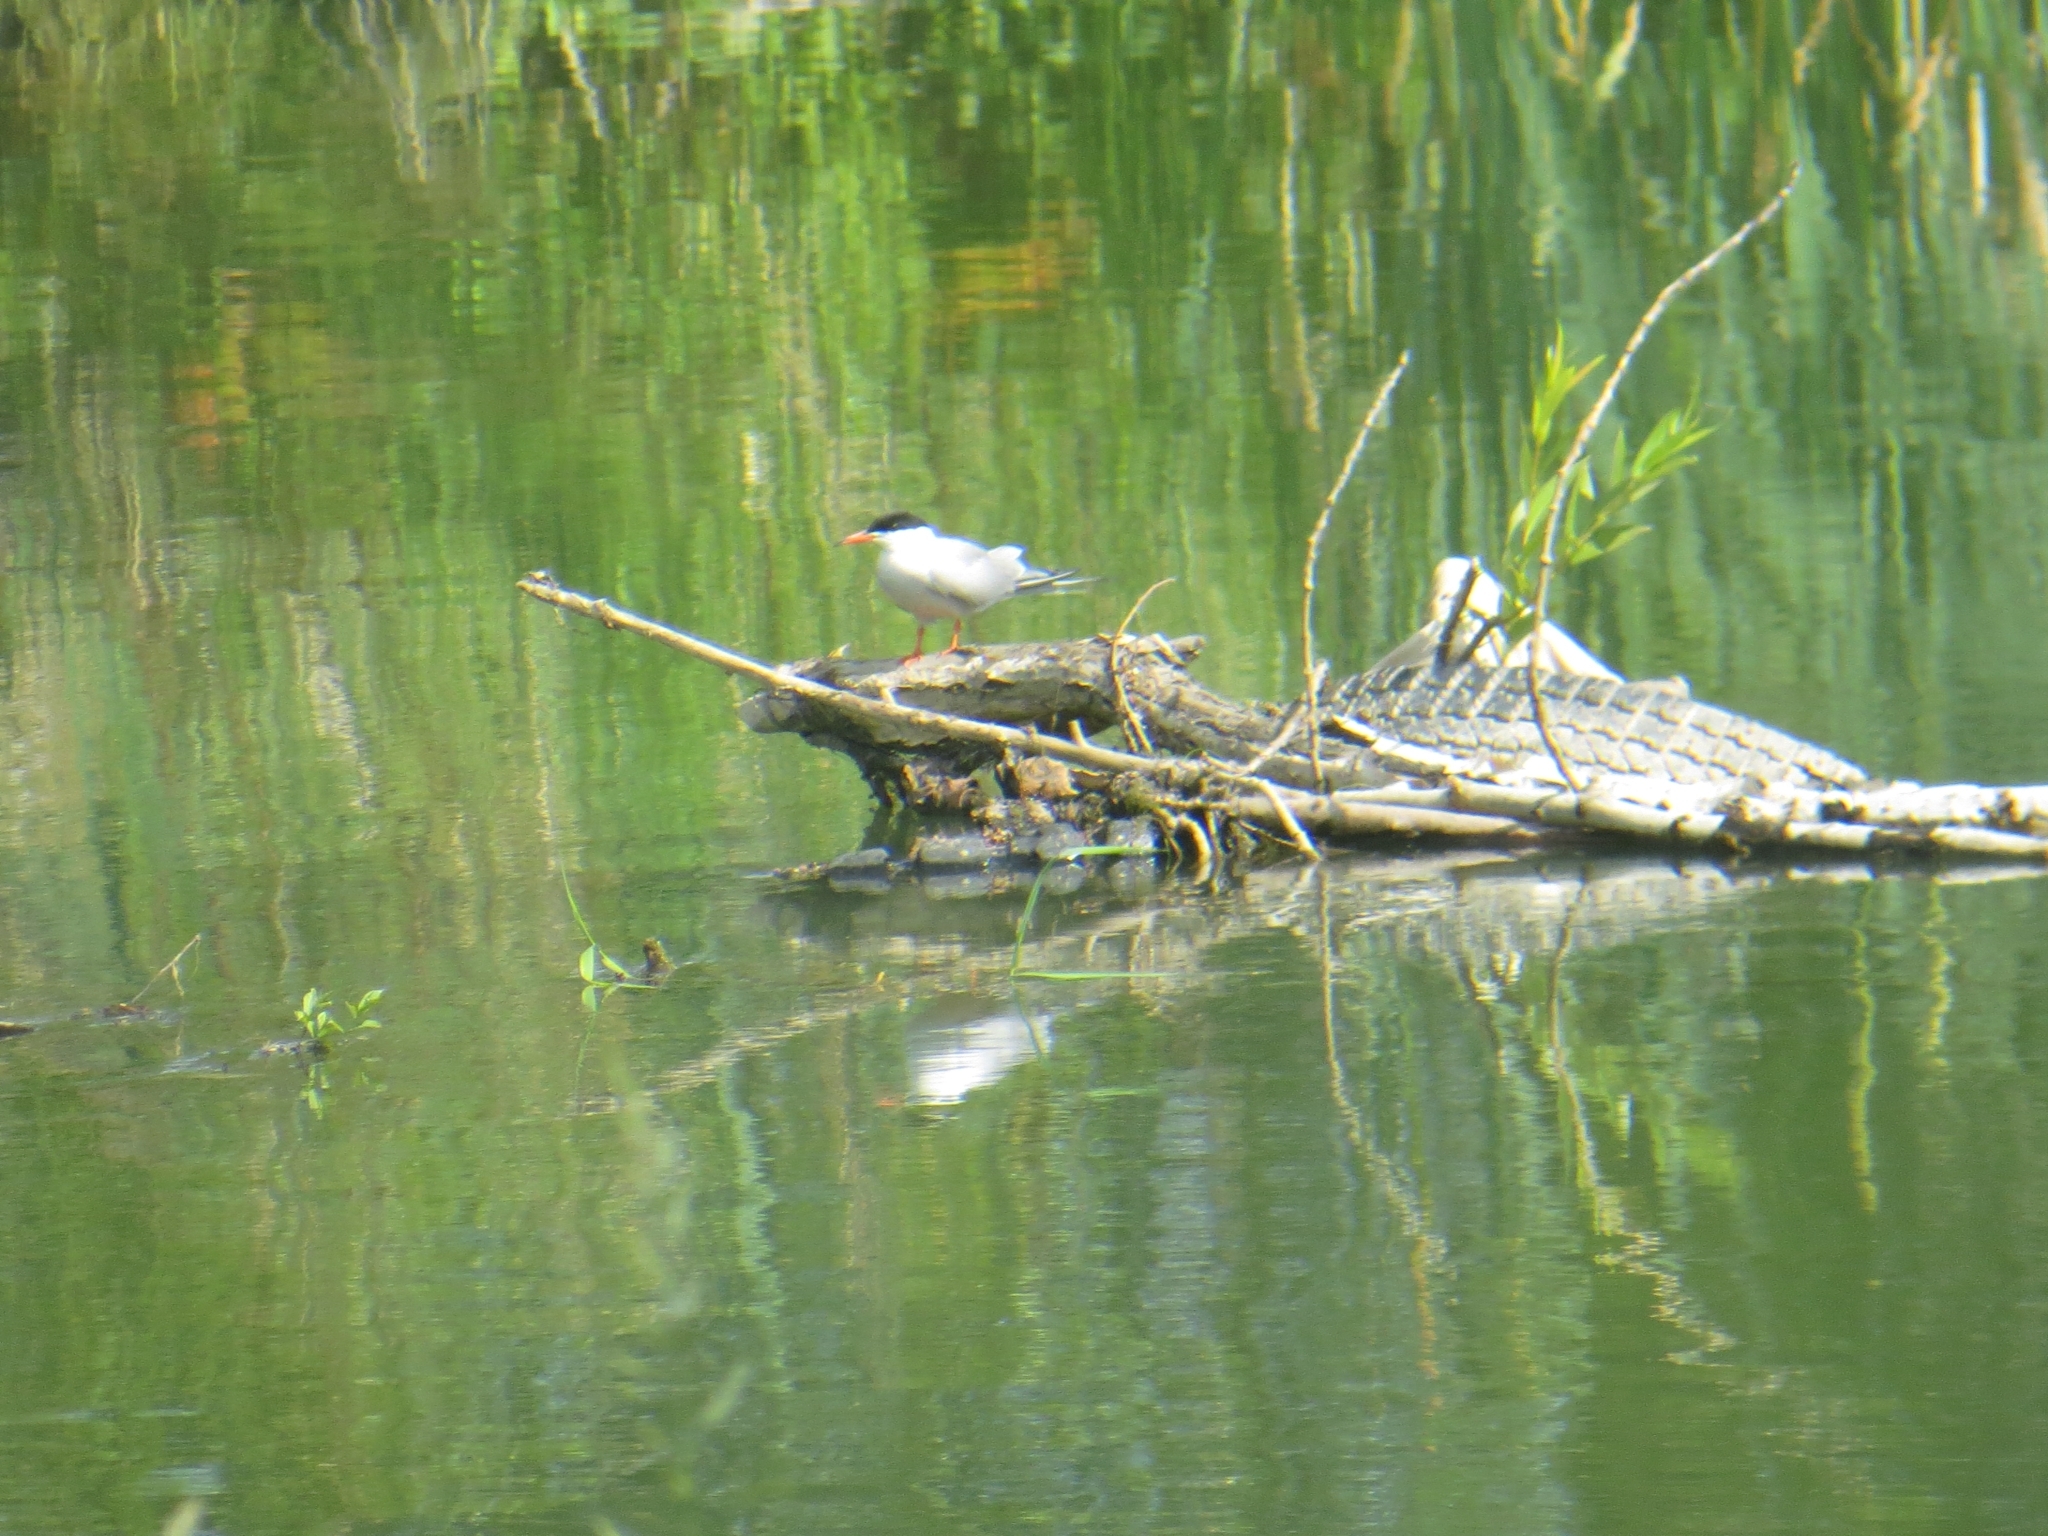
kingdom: Animalia
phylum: Chordata
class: Aves
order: Charadriiformes
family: Laridae
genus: Sterna
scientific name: Sterna hirundo
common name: Common tern
